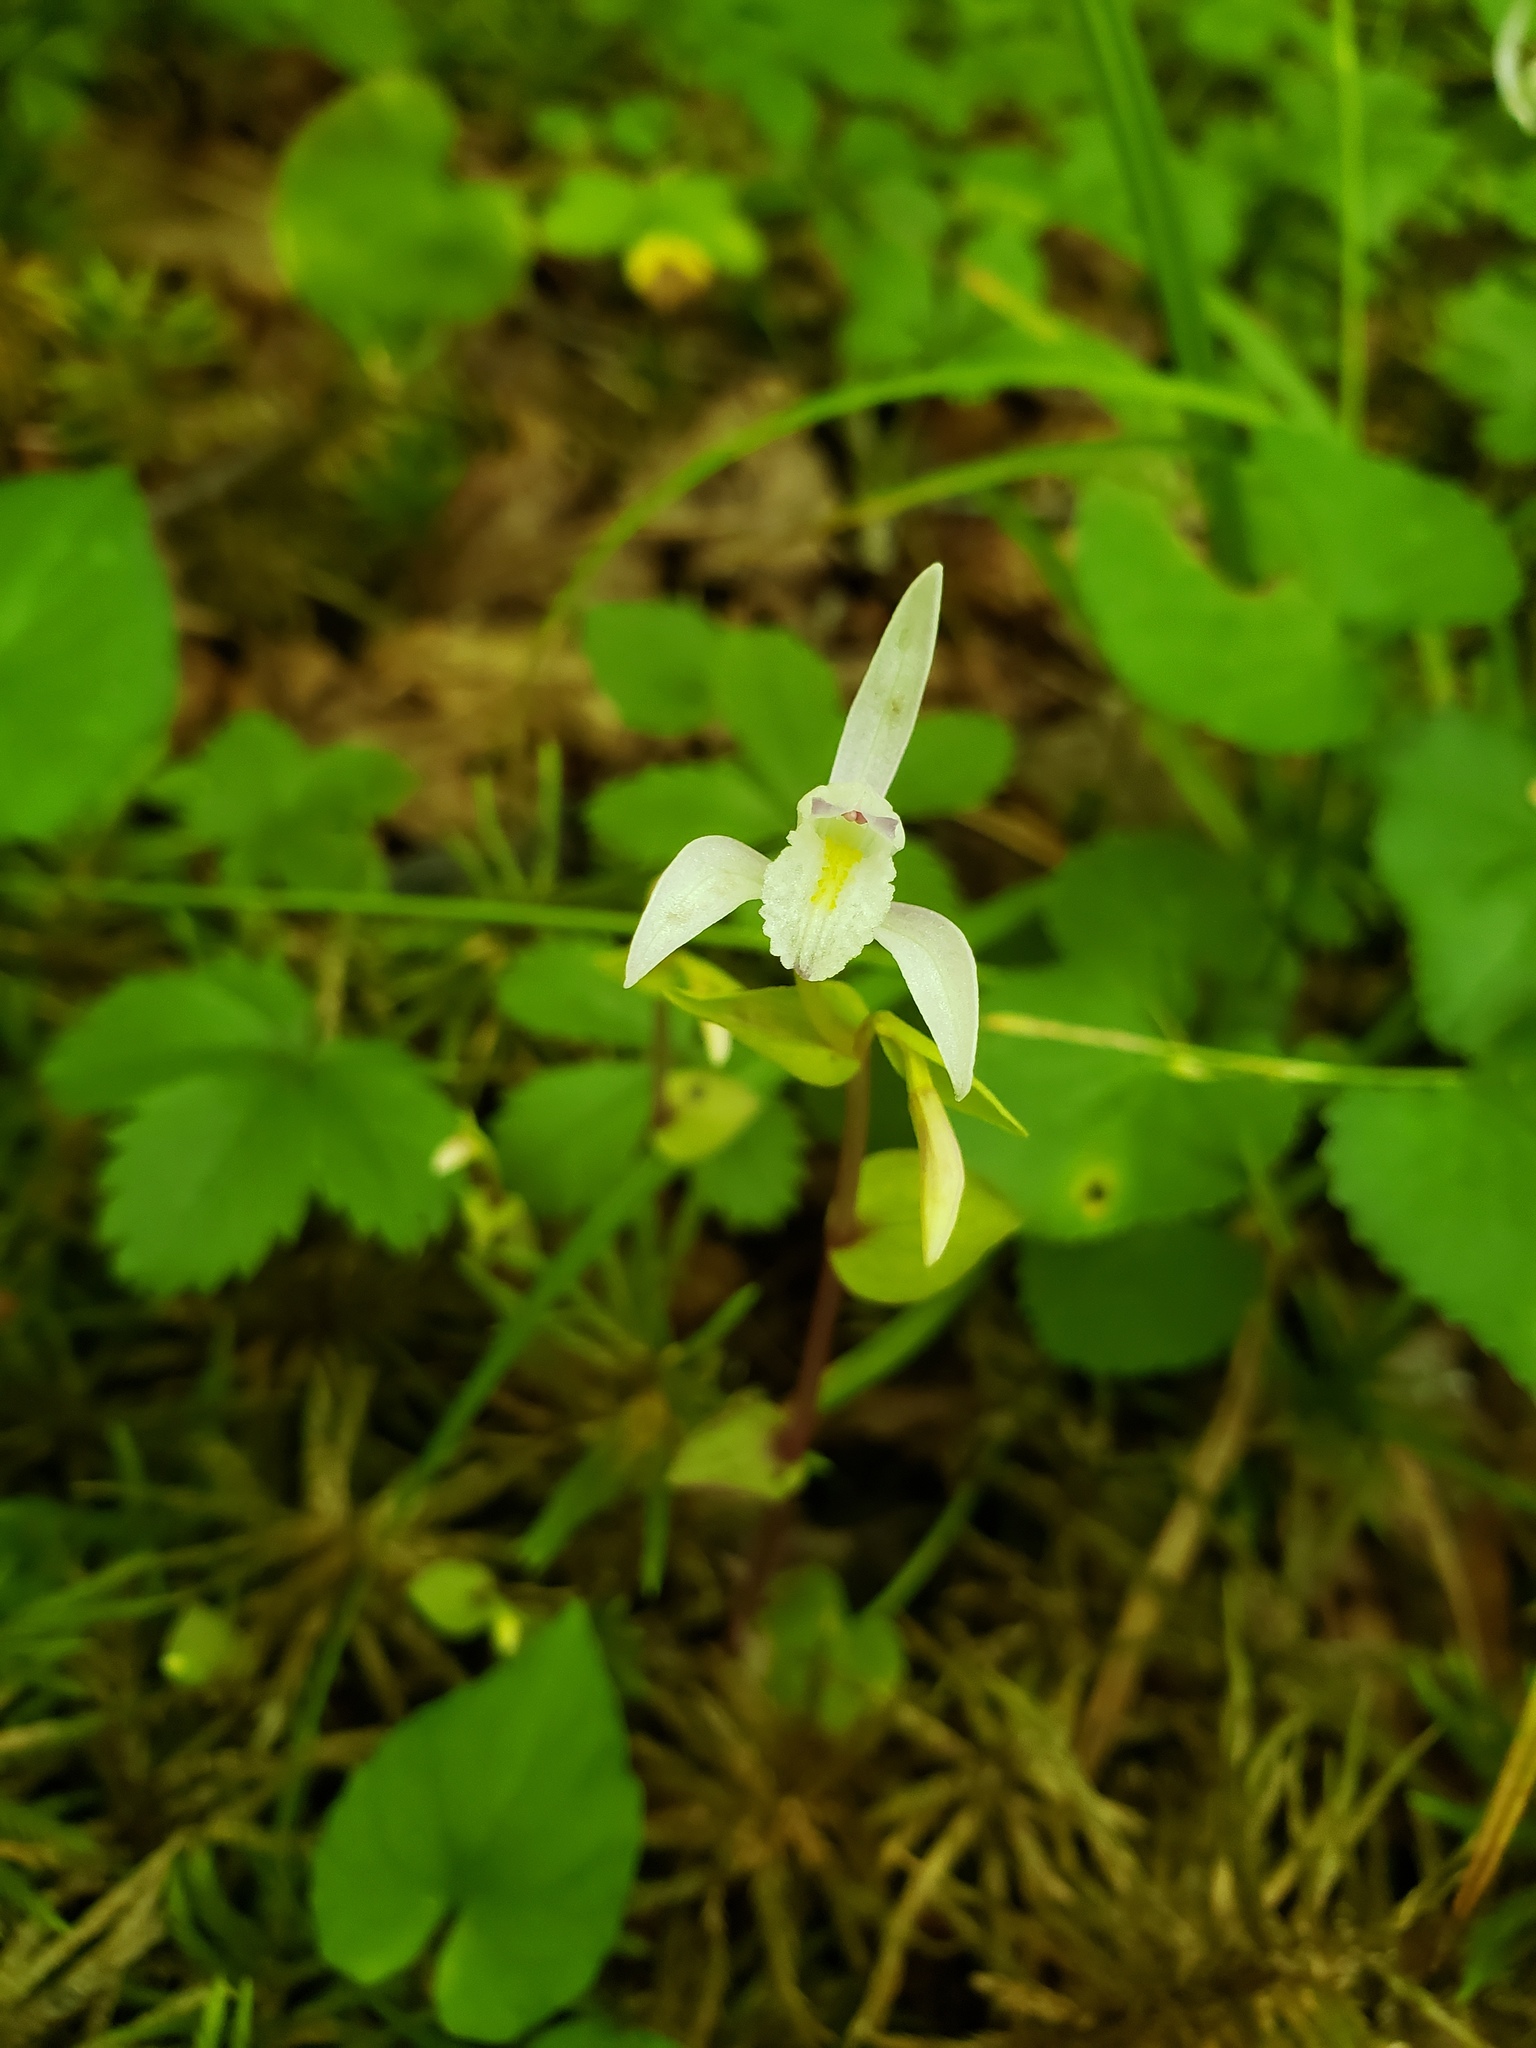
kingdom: Plantae
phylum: Tracheophyta
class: Liliopsida
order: Asparagales
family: Orchidaceae
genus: Triphora
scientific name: Triphora trianthophoros
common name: Three birds orchid
